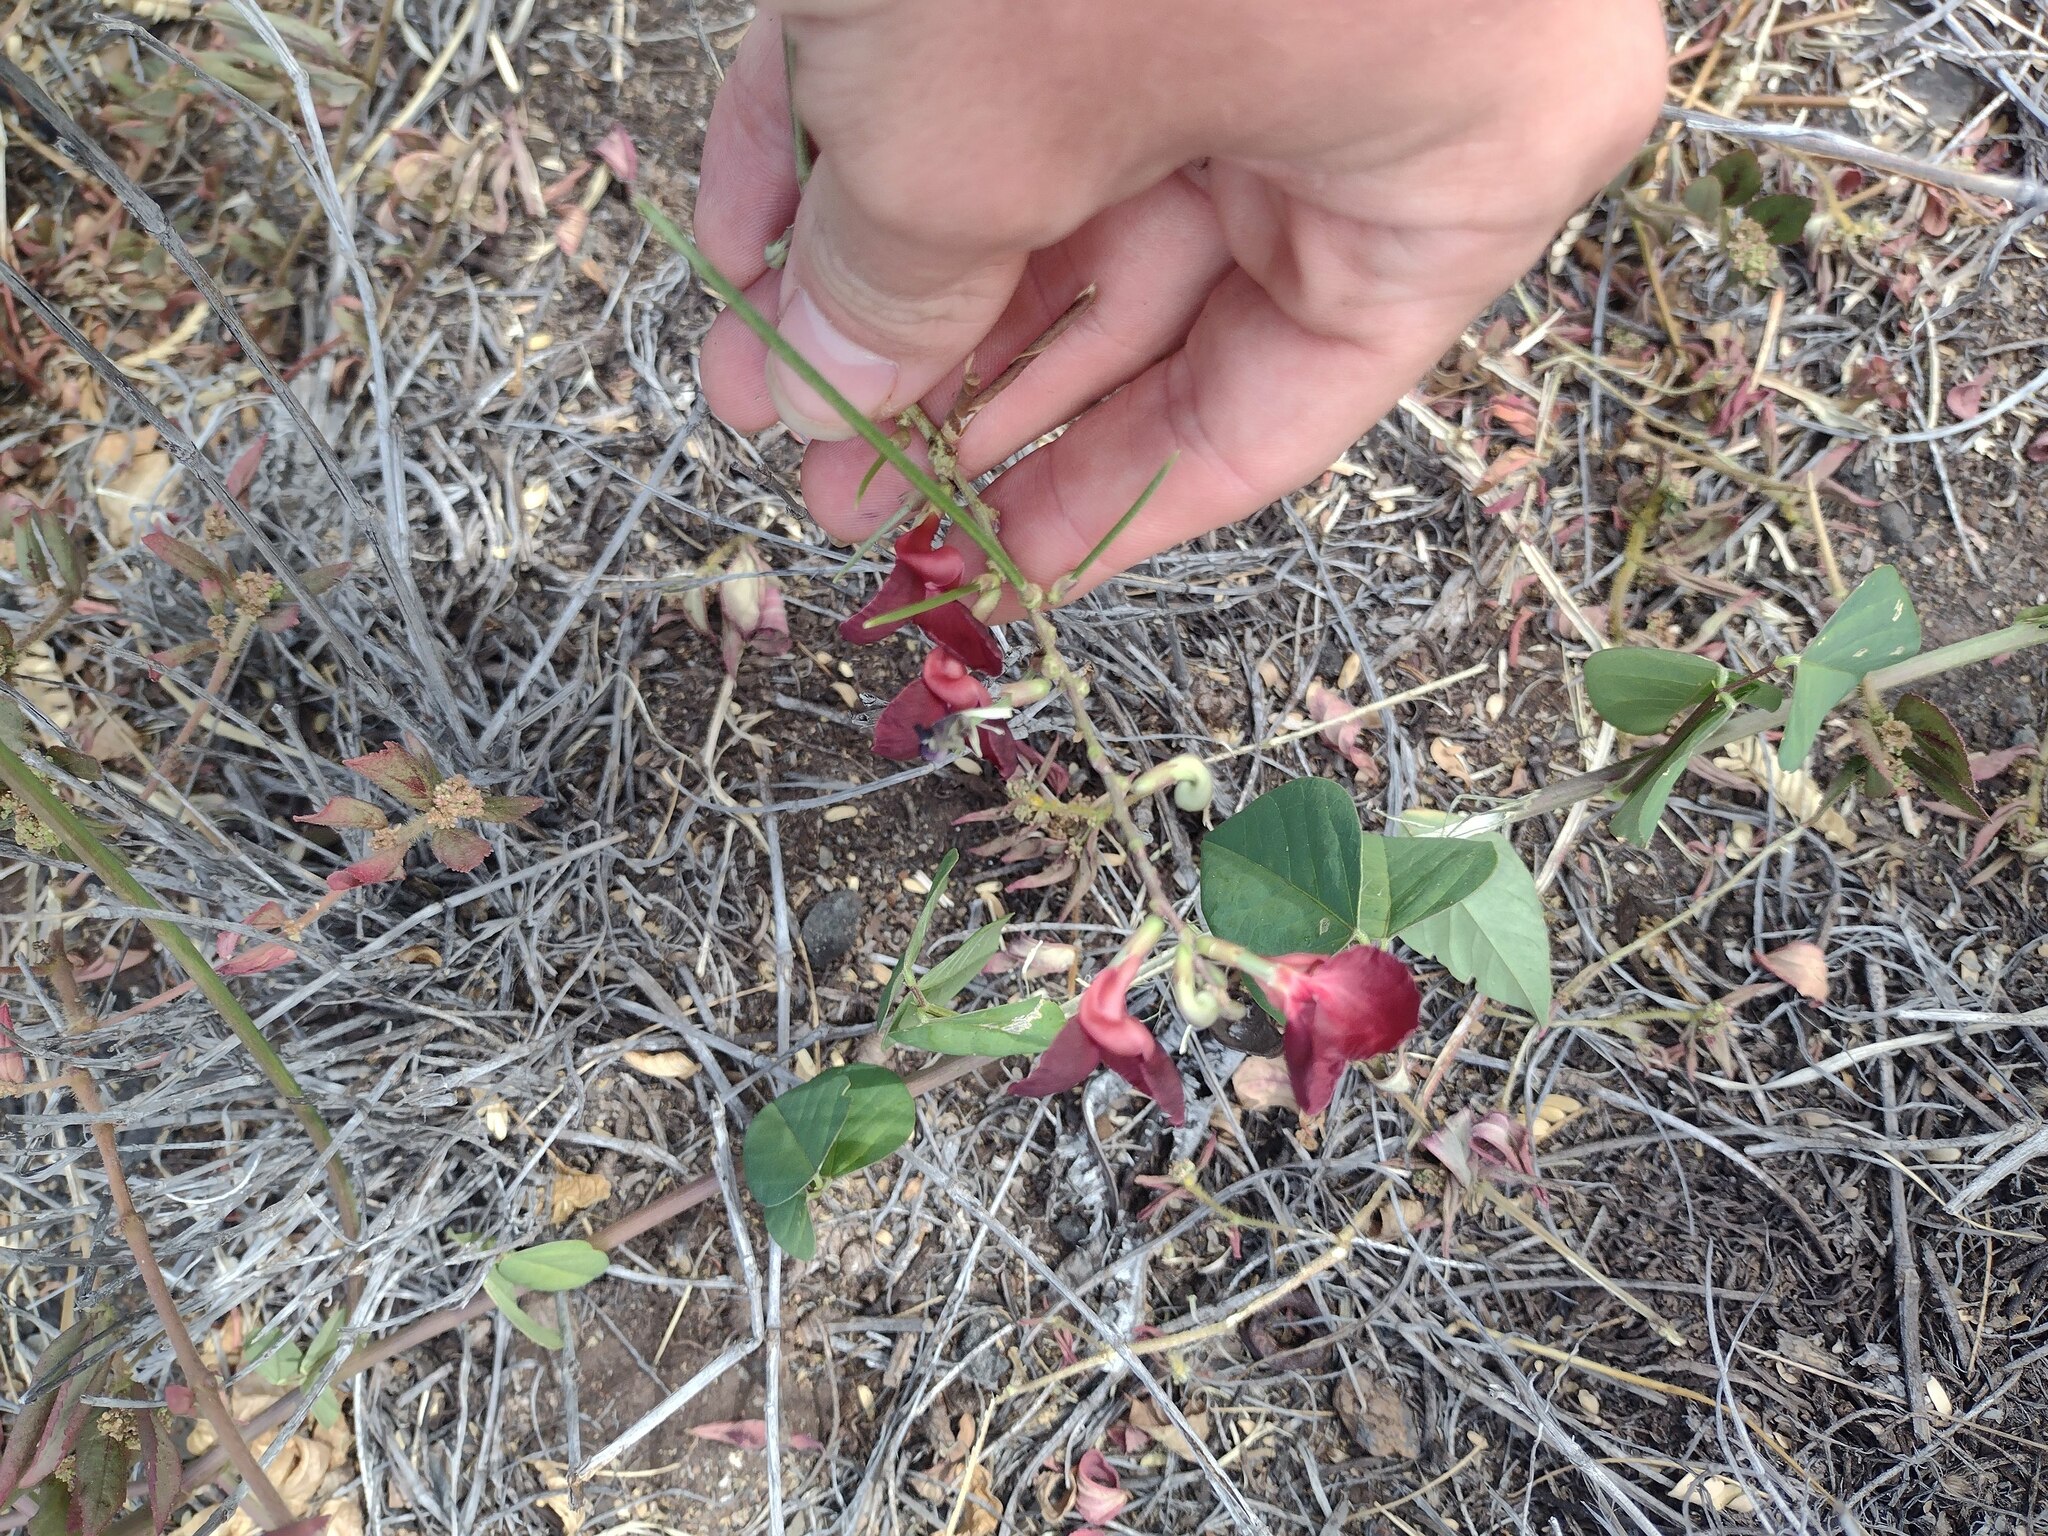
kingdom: Plantae
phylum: Tracheophyta
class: Magnoliopsida
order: Fabales
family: Fabaceae
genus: Macroptilium
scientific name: Macroptilium lathyroides
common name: Wild bushbean
